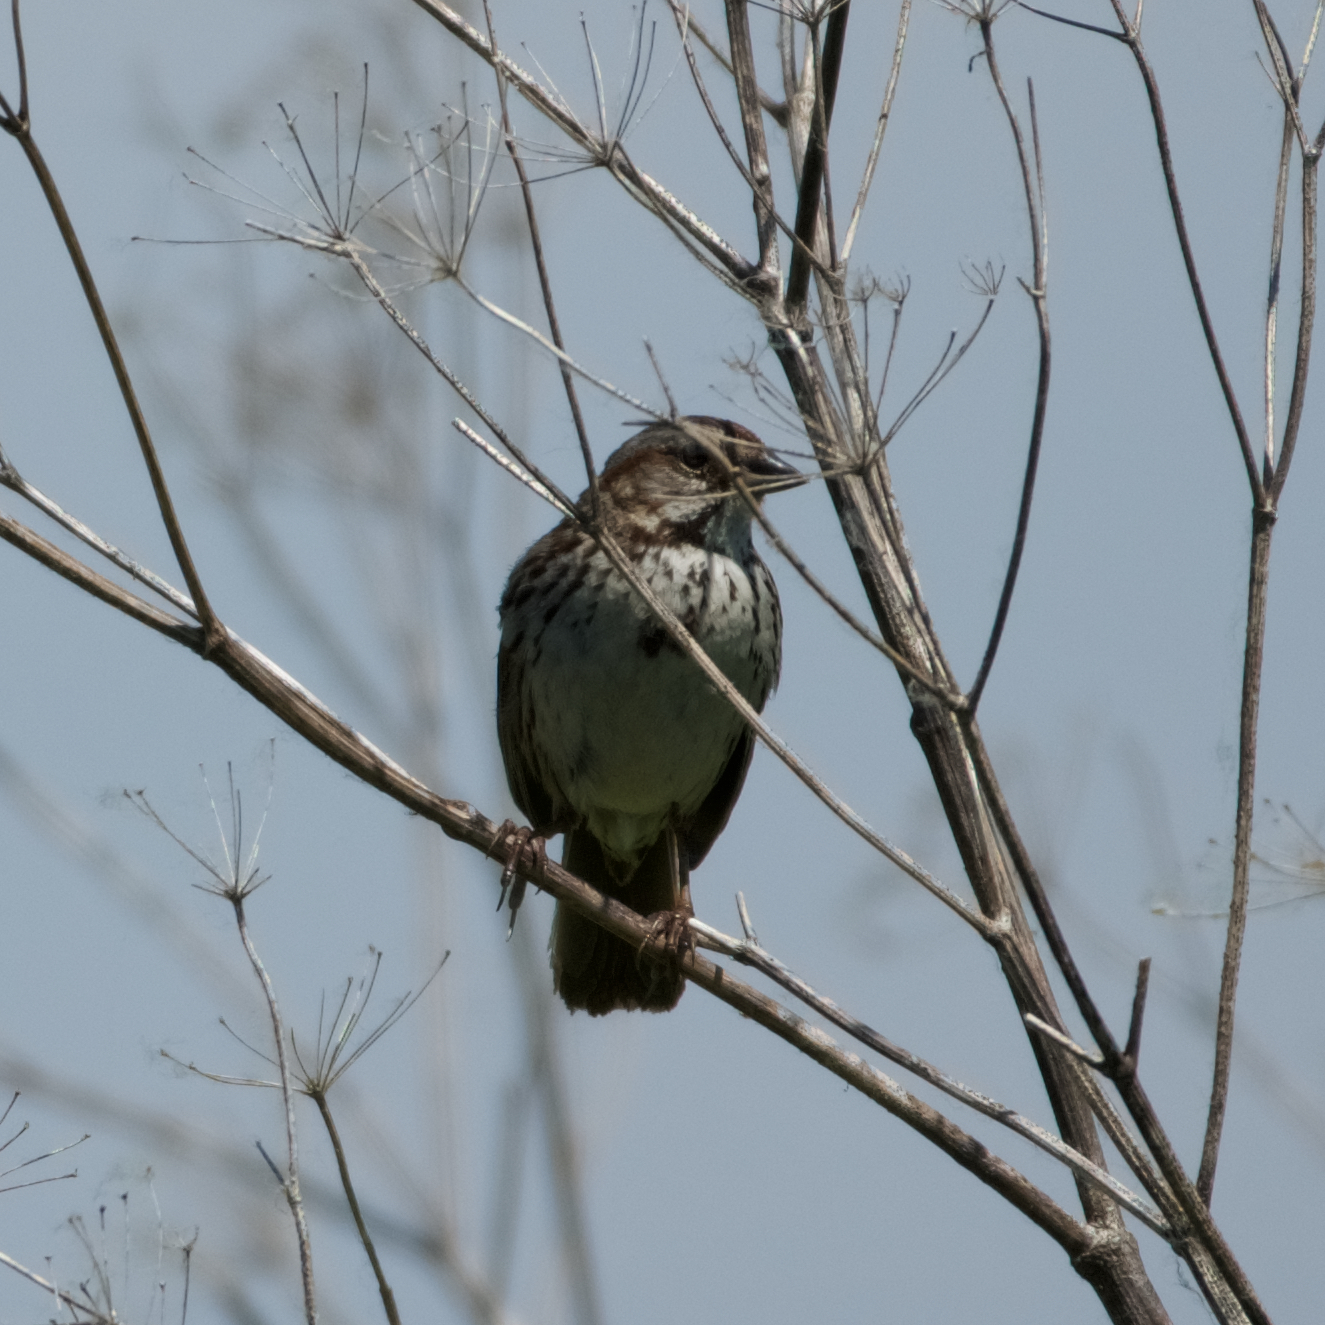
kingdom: Animalia
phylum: Chordata
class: Aves
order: Passeriformes
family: Passerellidae
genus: Melospiza
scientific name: Melospiza melodia
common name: Song sparrow
